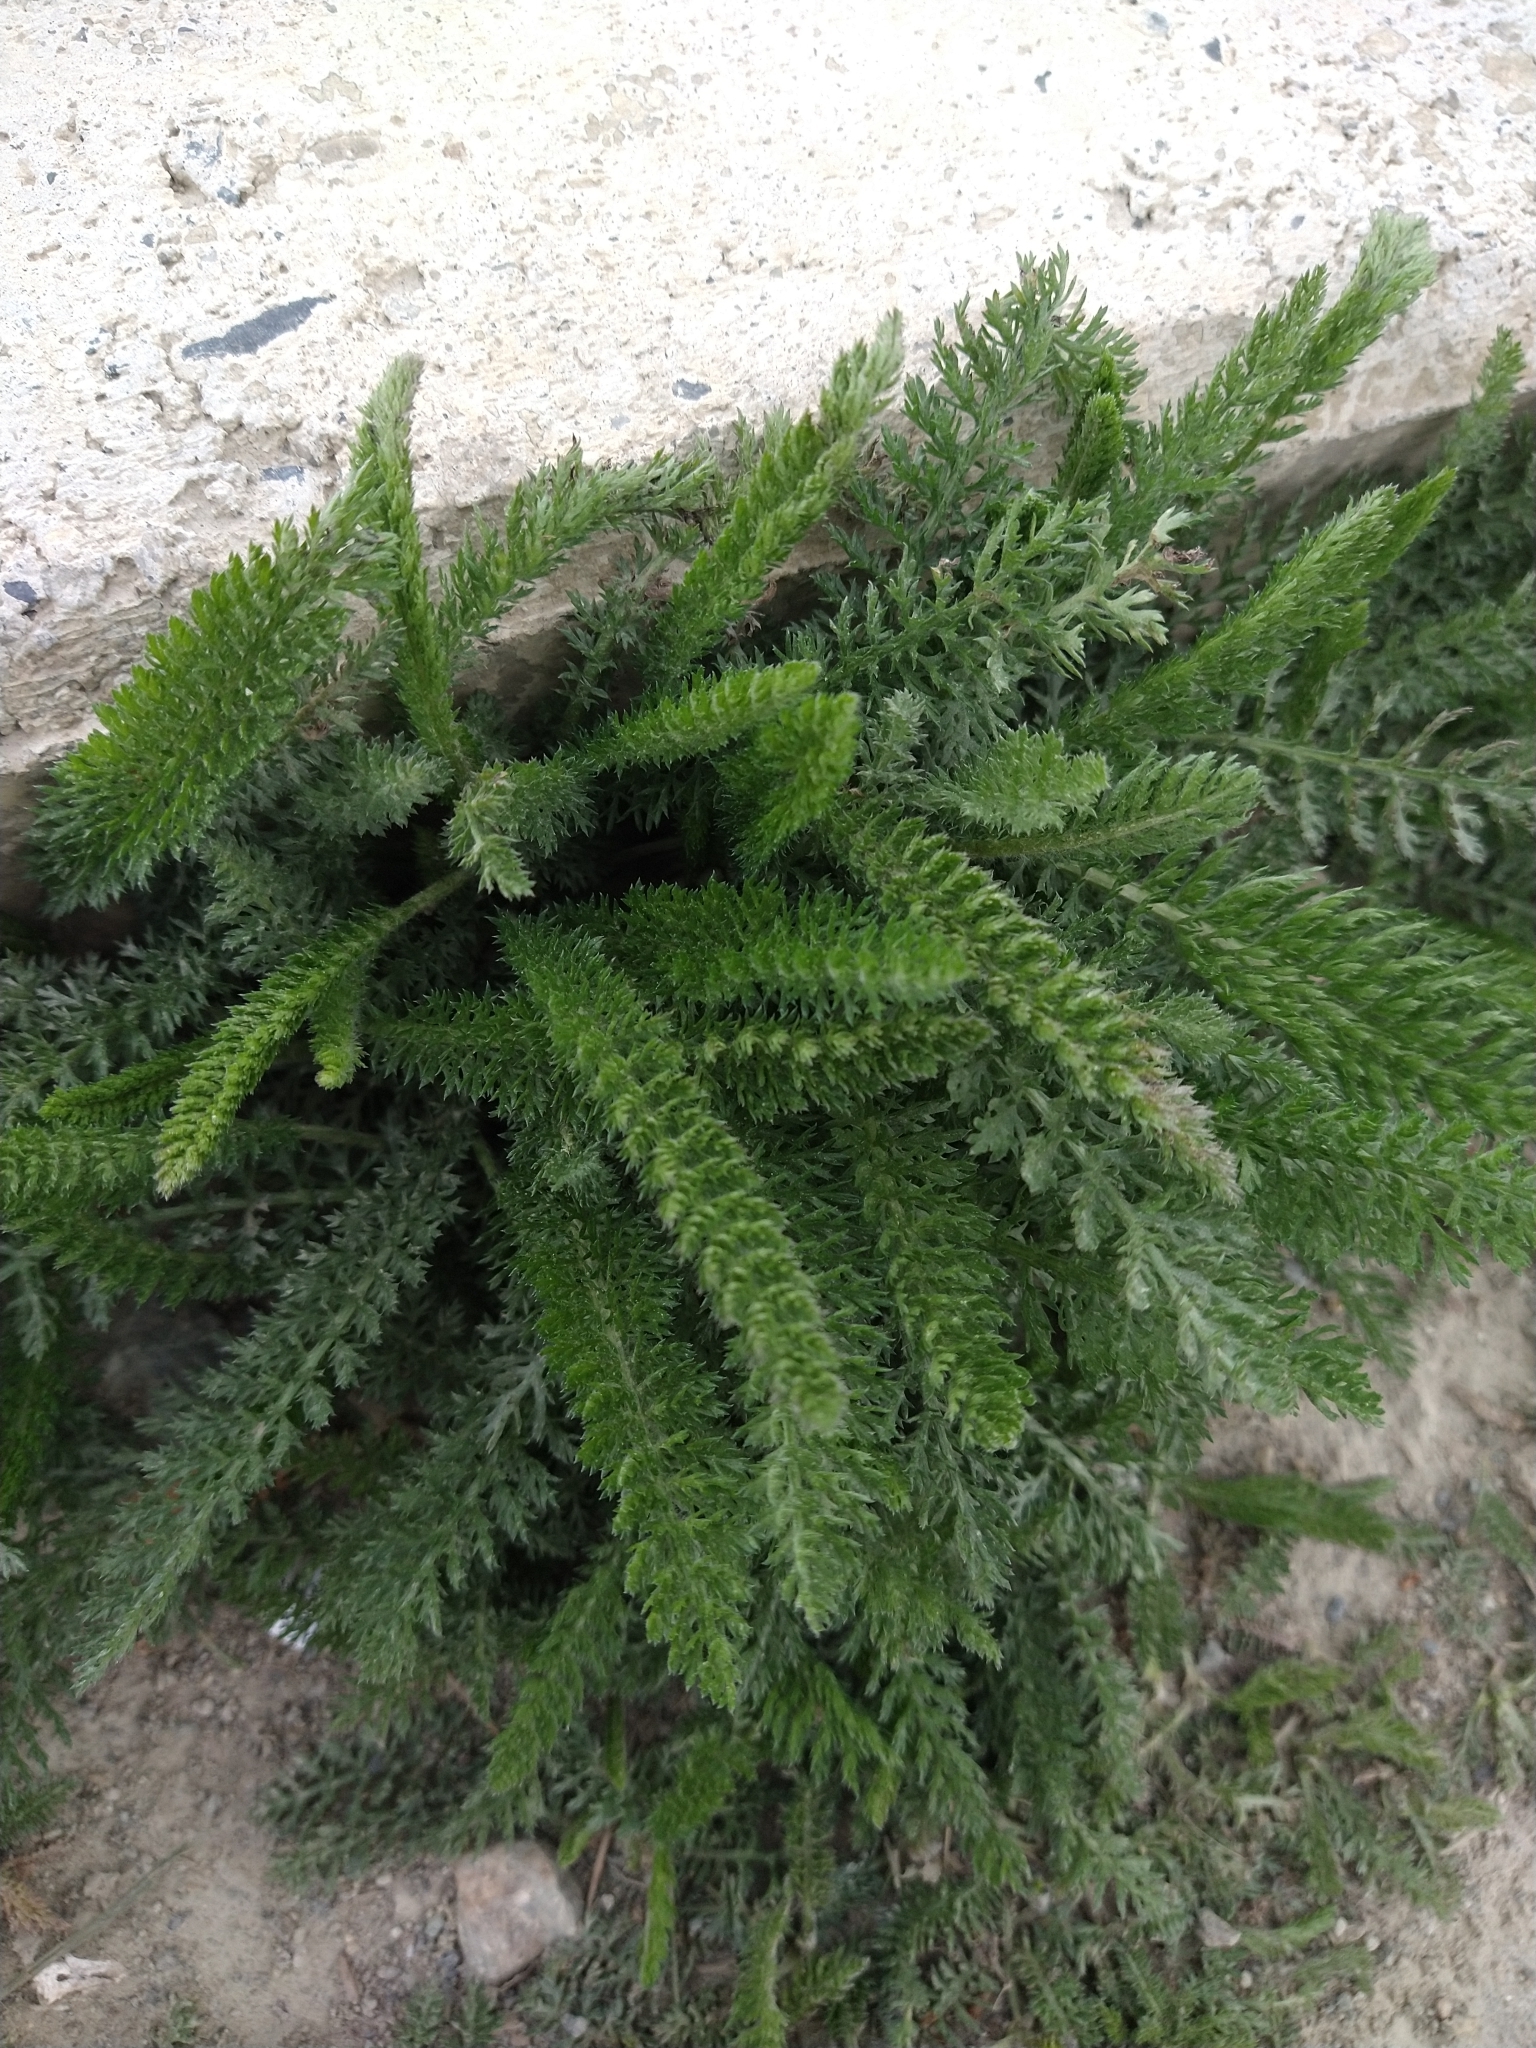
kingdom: Plantae
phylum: Tracheophyta
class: Magnoliopsida
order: Asterales
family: Asteraceae
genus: Achillea
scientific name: Achillea millefolium
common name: Yarrow
